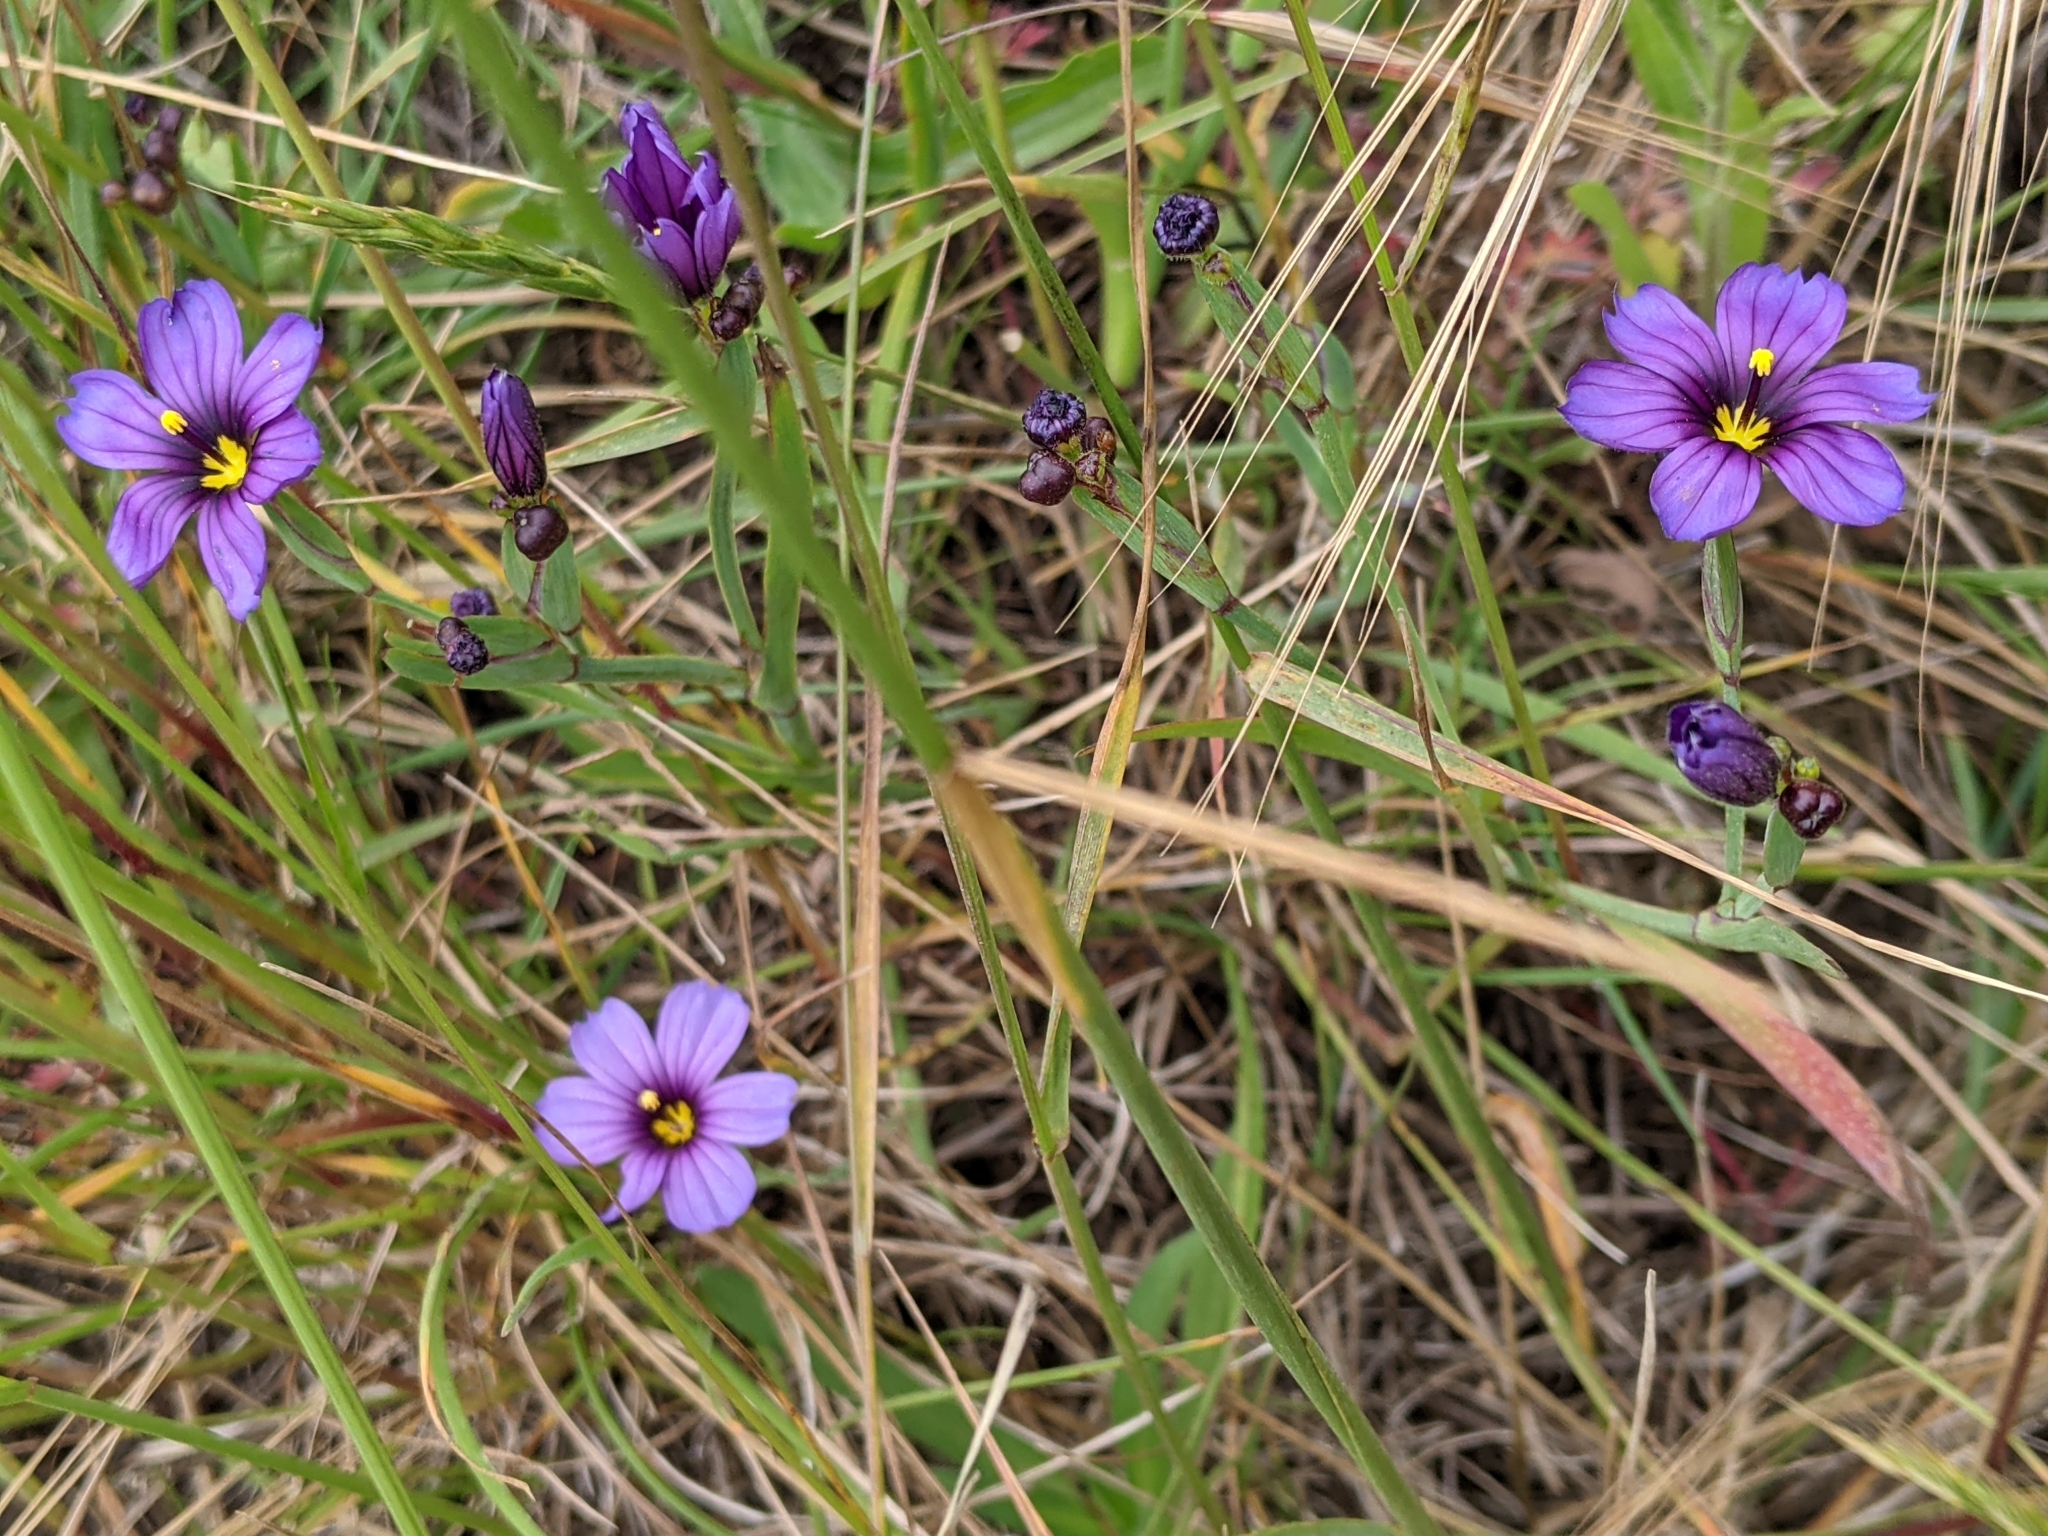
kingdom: Plantae
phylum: Tracheophyta
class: Liliopsida
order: Asparagales
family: Iridaceae
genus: Sisyrinchium
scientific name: Sisyrinchium bellum
